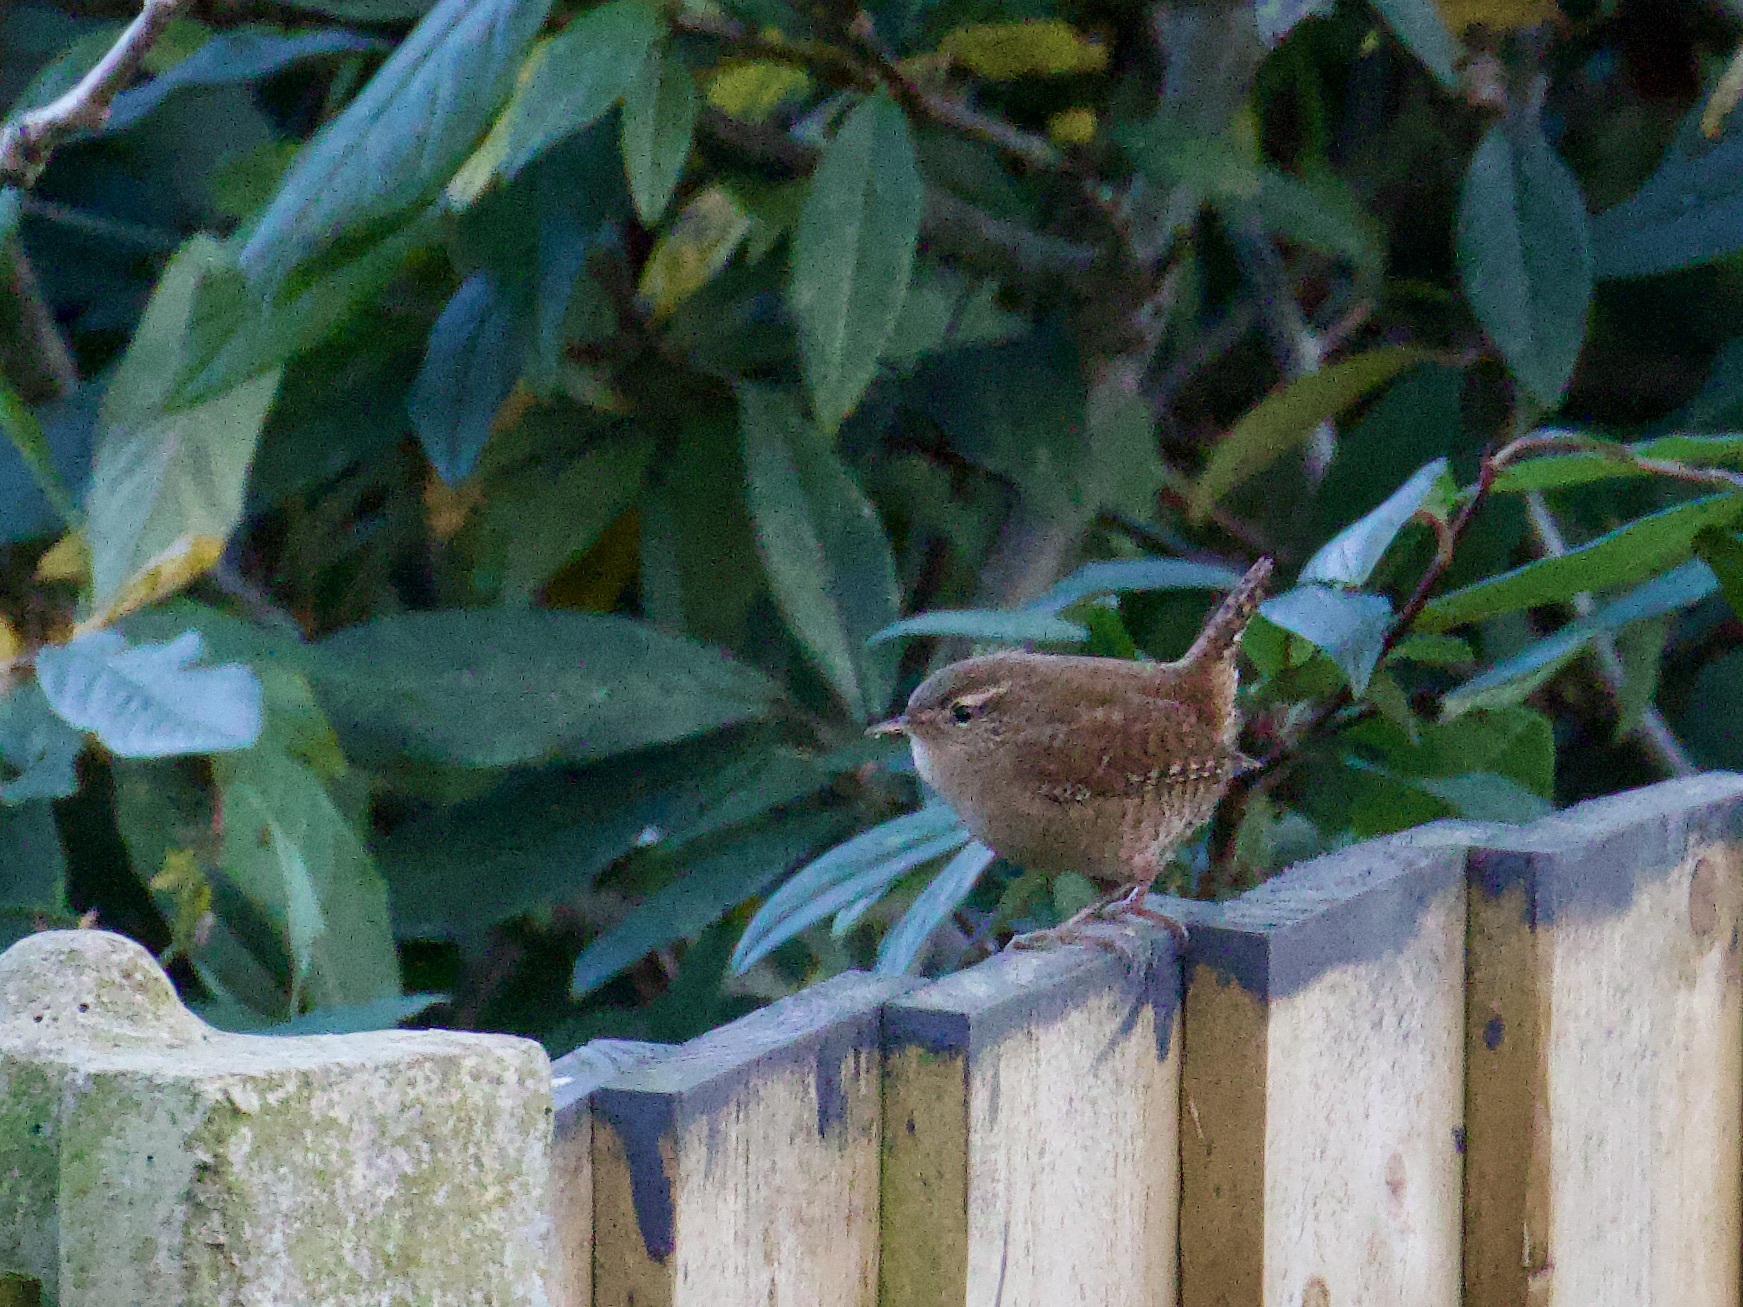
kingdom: Animalia
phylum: Chordata
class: Aves
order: Passeriformes
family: Troglodytidae
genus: Troglodytes
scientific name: Troglodytes troglodytes
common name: Eurasian wren
